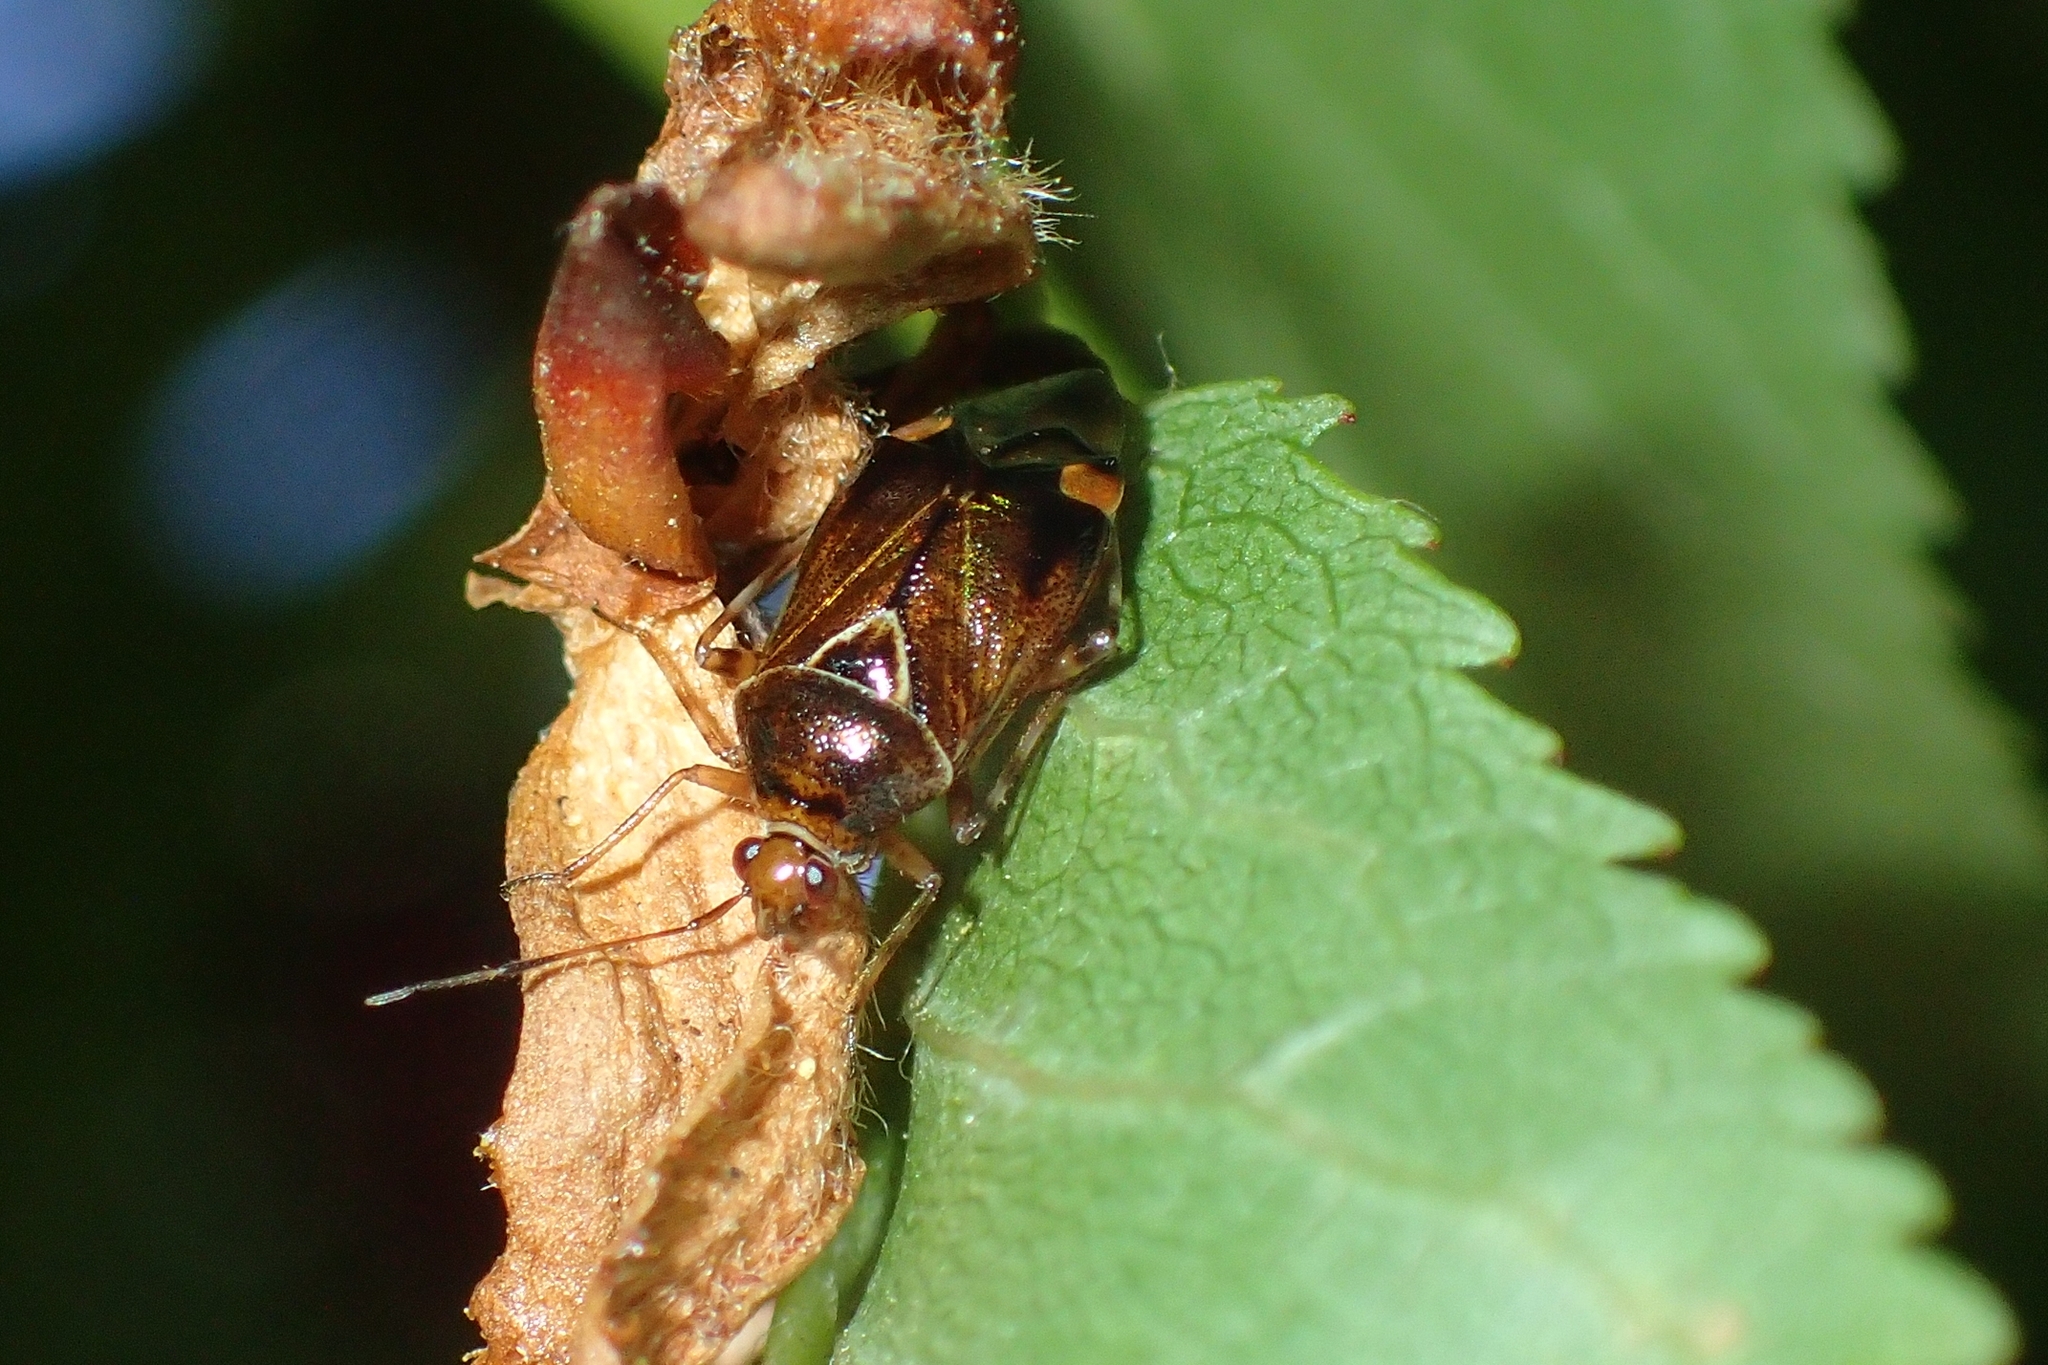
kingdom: Animalia
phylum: Arthropoda
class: Insecta
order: Hemiptera
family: Miridae
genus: Deraeocoris
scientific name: Deraeocoris flavilinea
